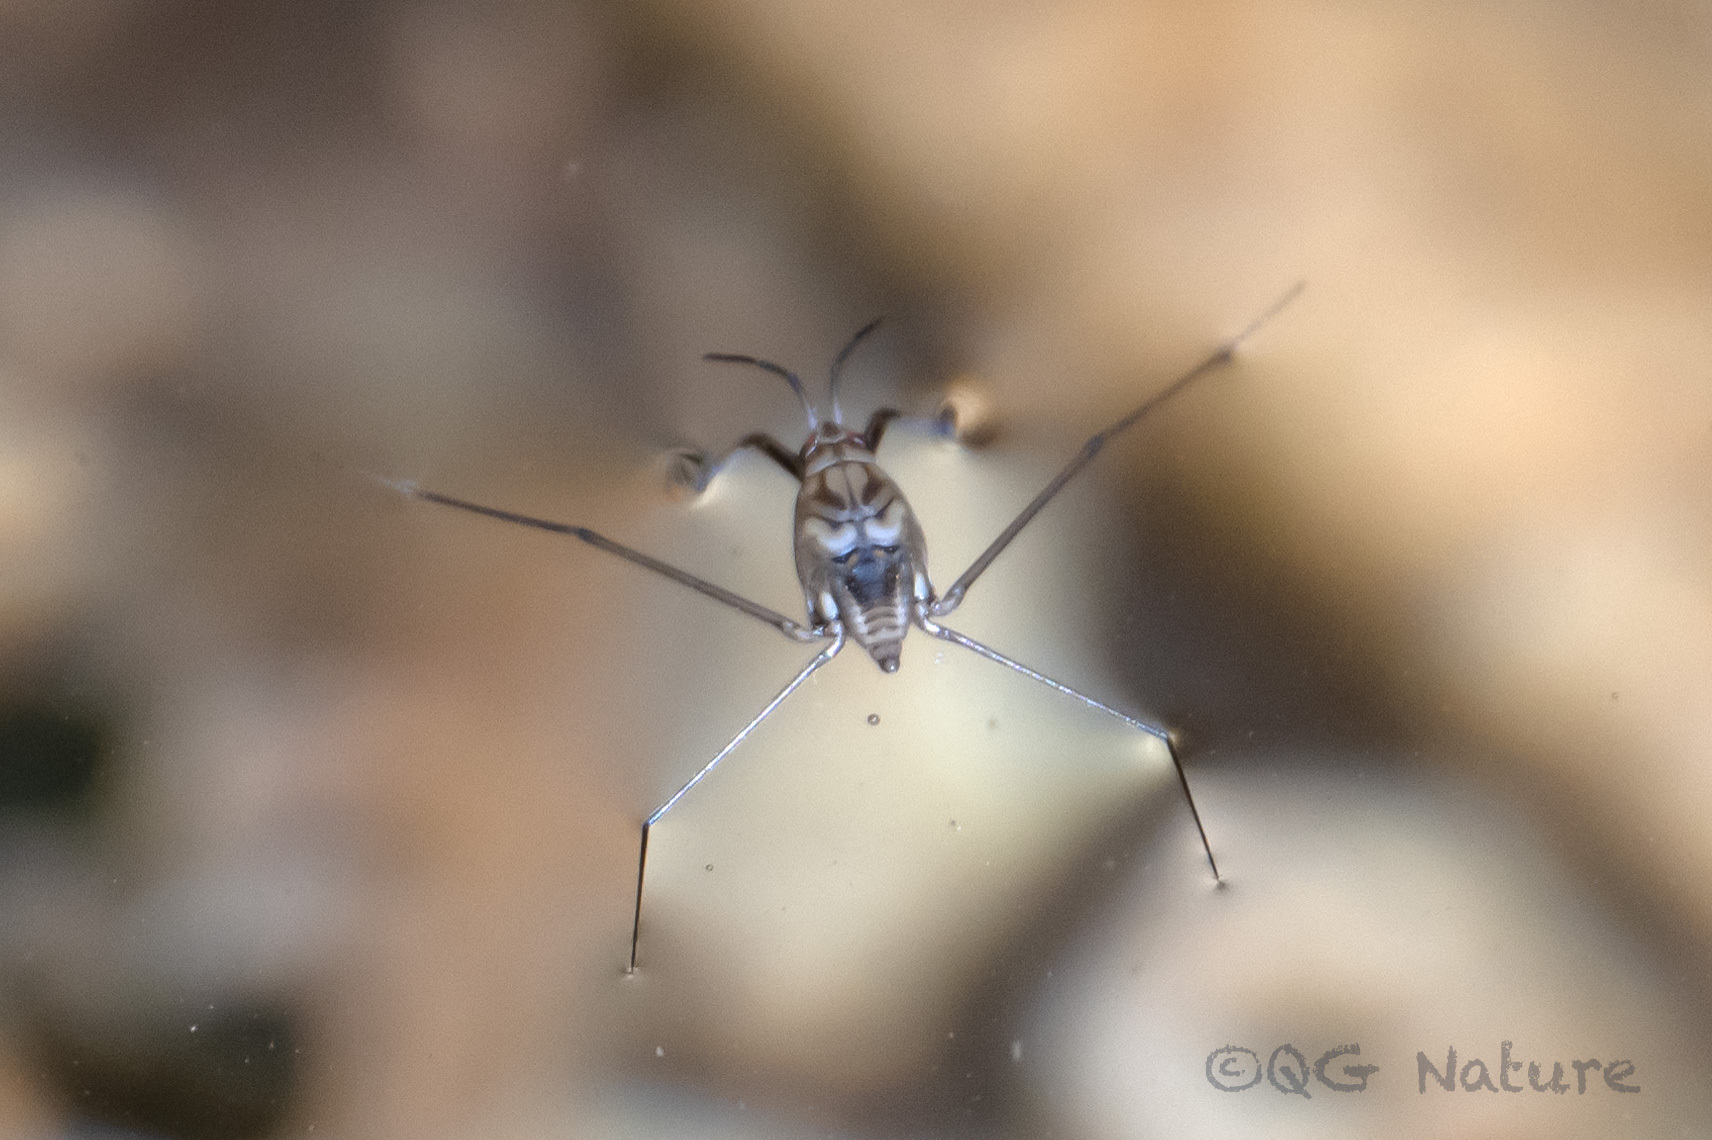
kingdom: Animalia
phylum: Arthropoda
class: Insecta
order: Hemiptera
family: Gerridae
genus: Metrocoris
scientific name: Metrocoris esakii
